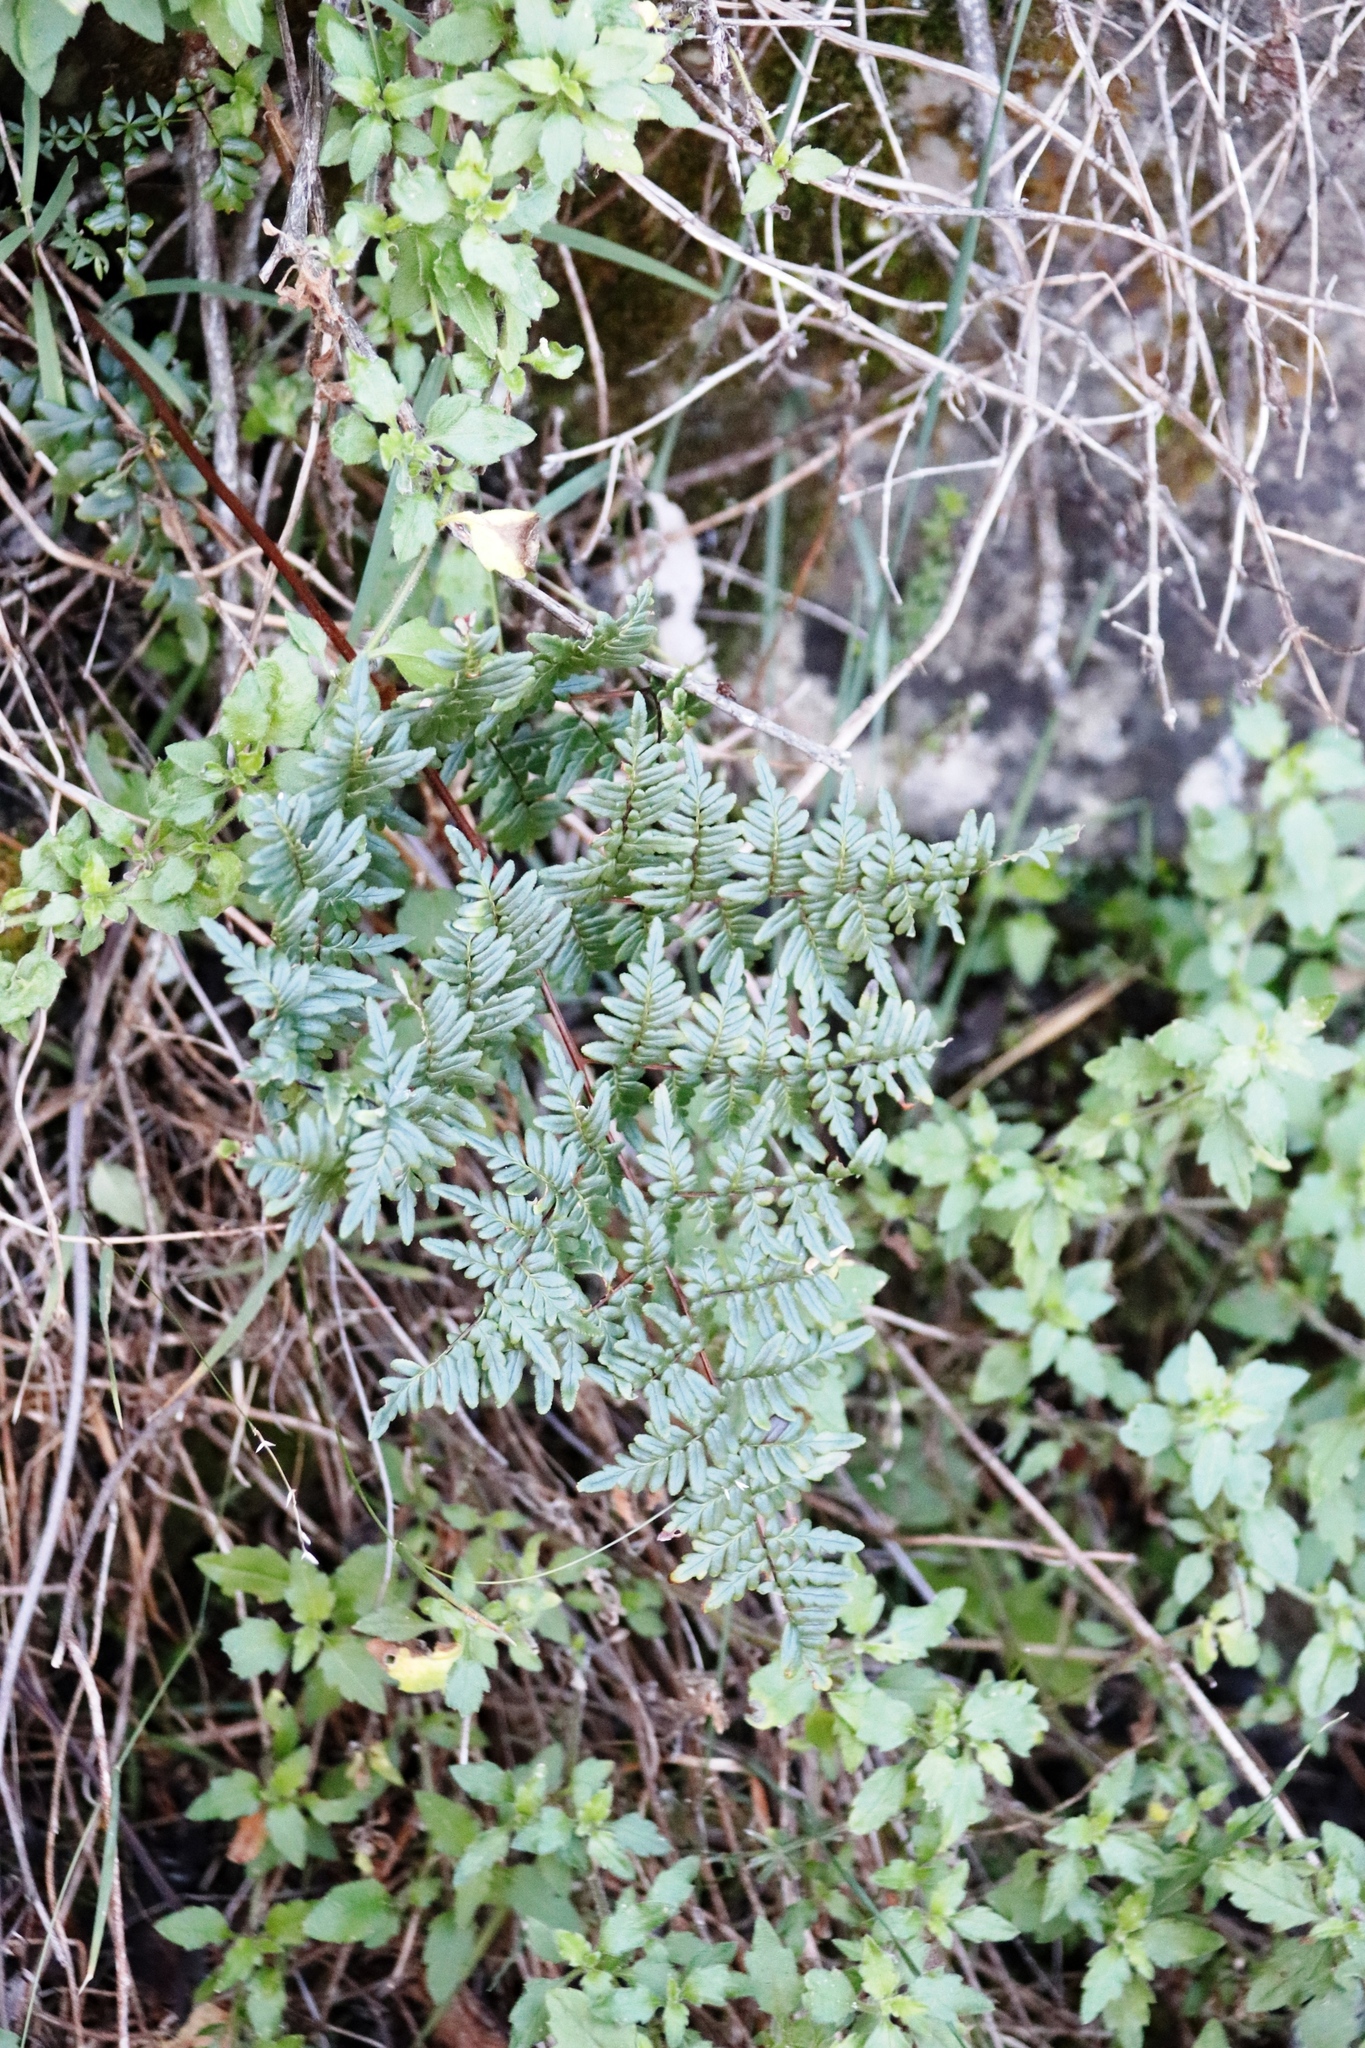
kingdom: Plantae
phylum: Tracheophyta
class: Polypodiopsida
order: Polypodiales
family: Pteridaceae
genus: Cheilanthes
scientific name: Cheilanthes quadripinnata
